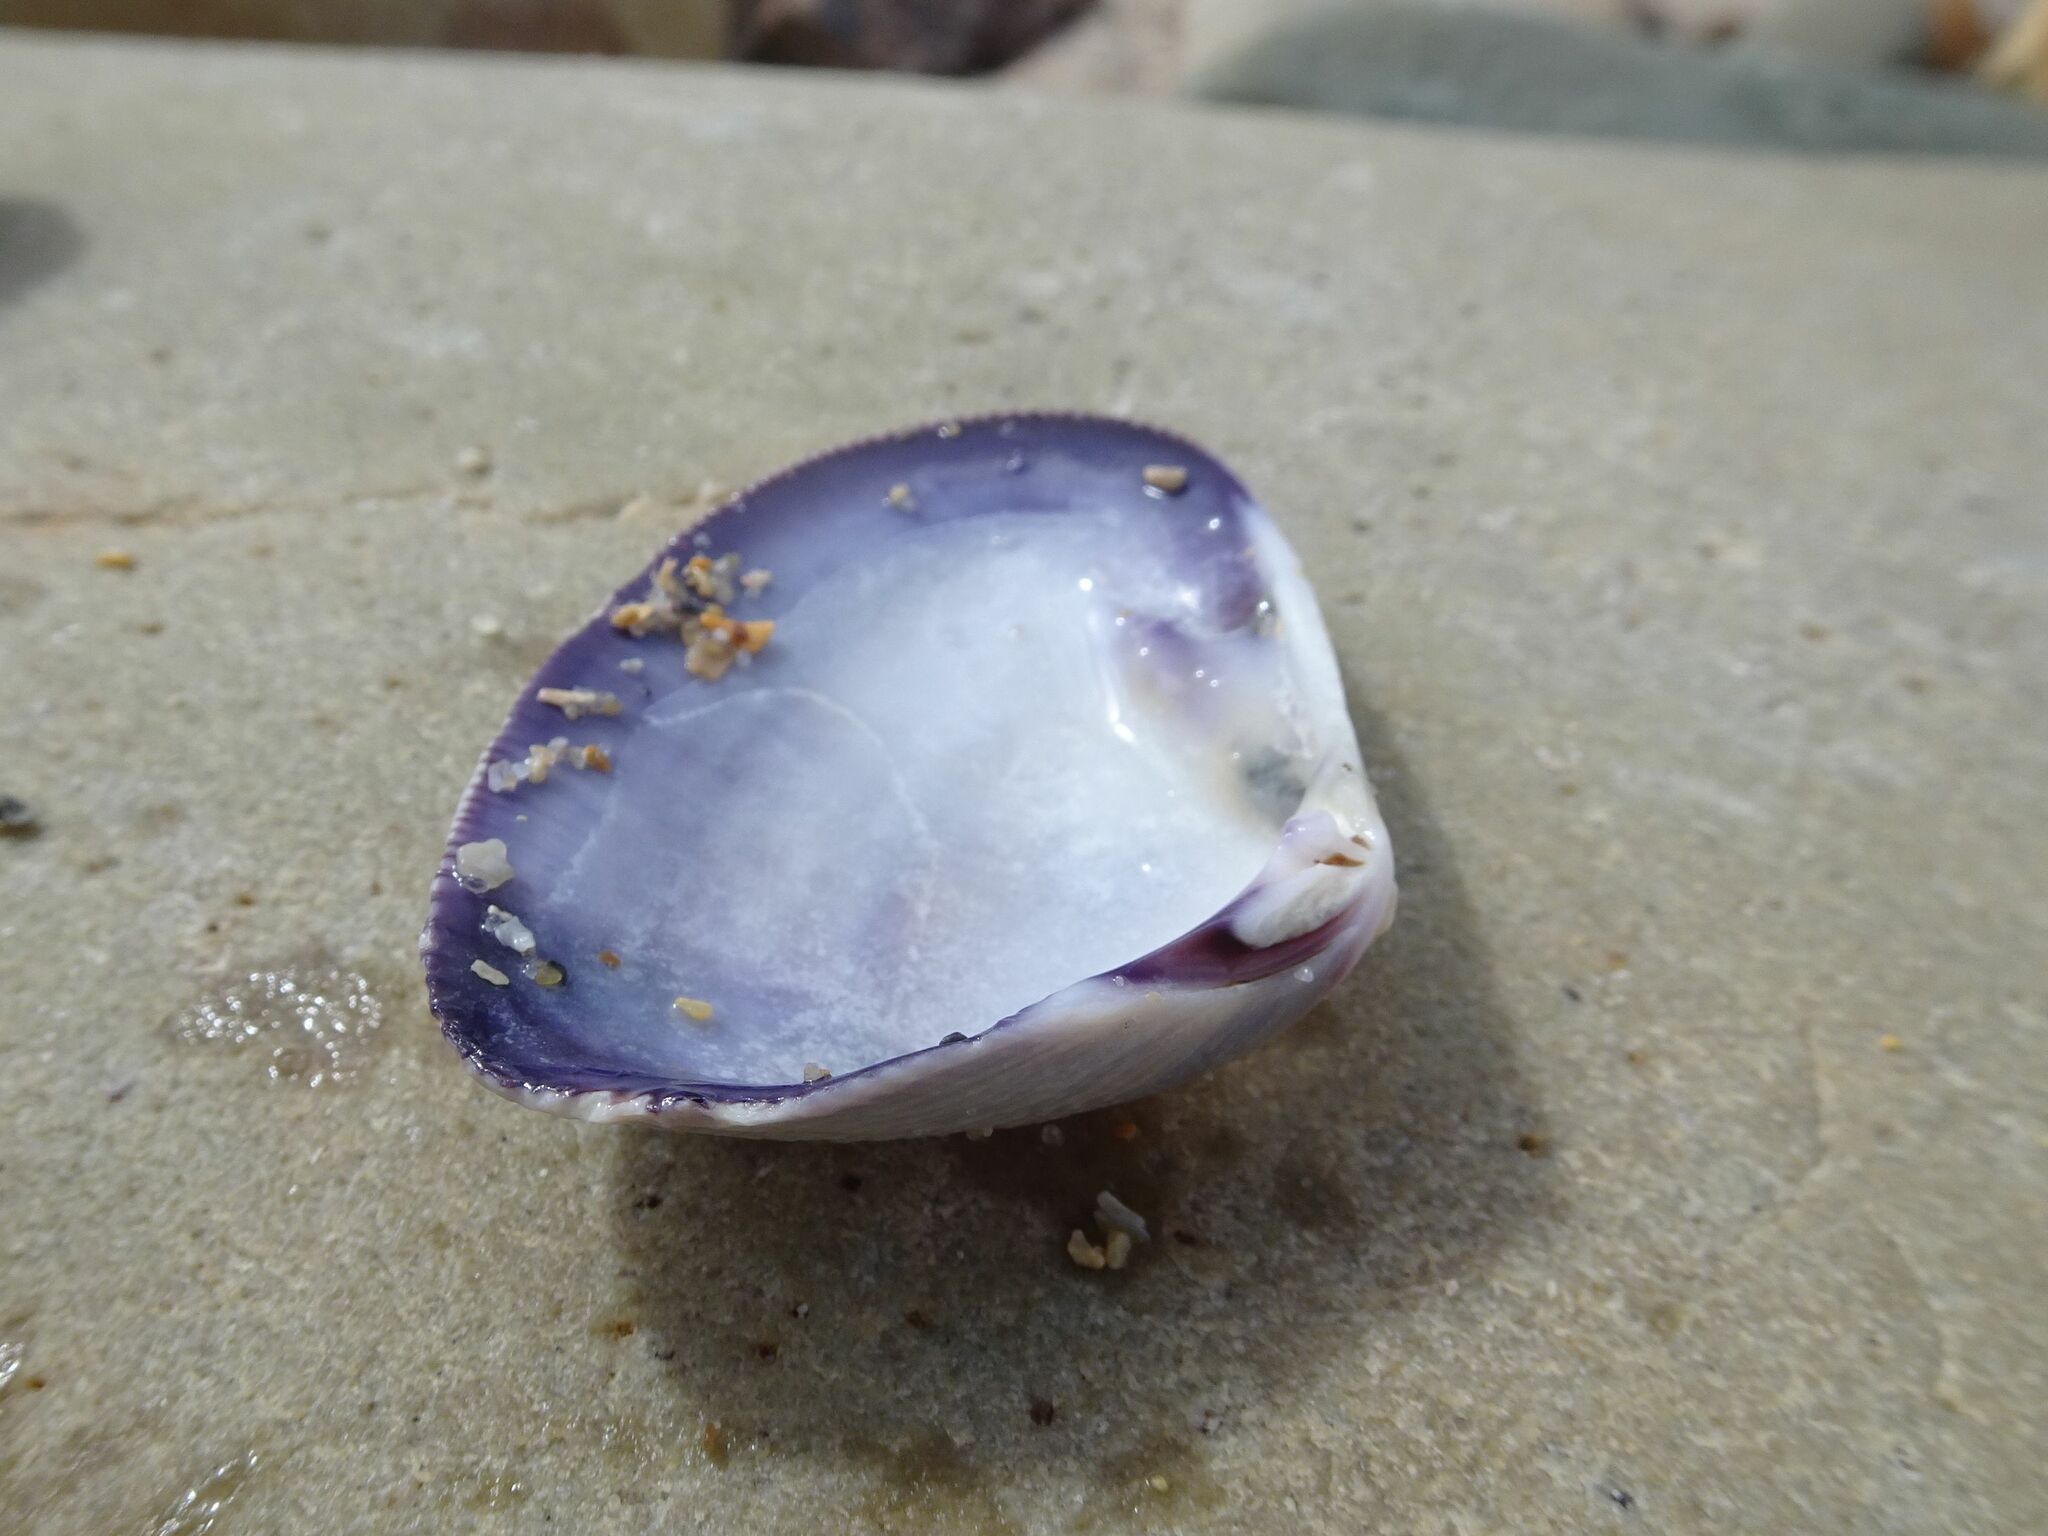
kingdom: Animalia
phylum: Mollusca
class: Bivalvia
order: Cardiida
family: Donacidae
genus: Donax
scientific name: Donax serra
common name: Giant south african wedge clam
